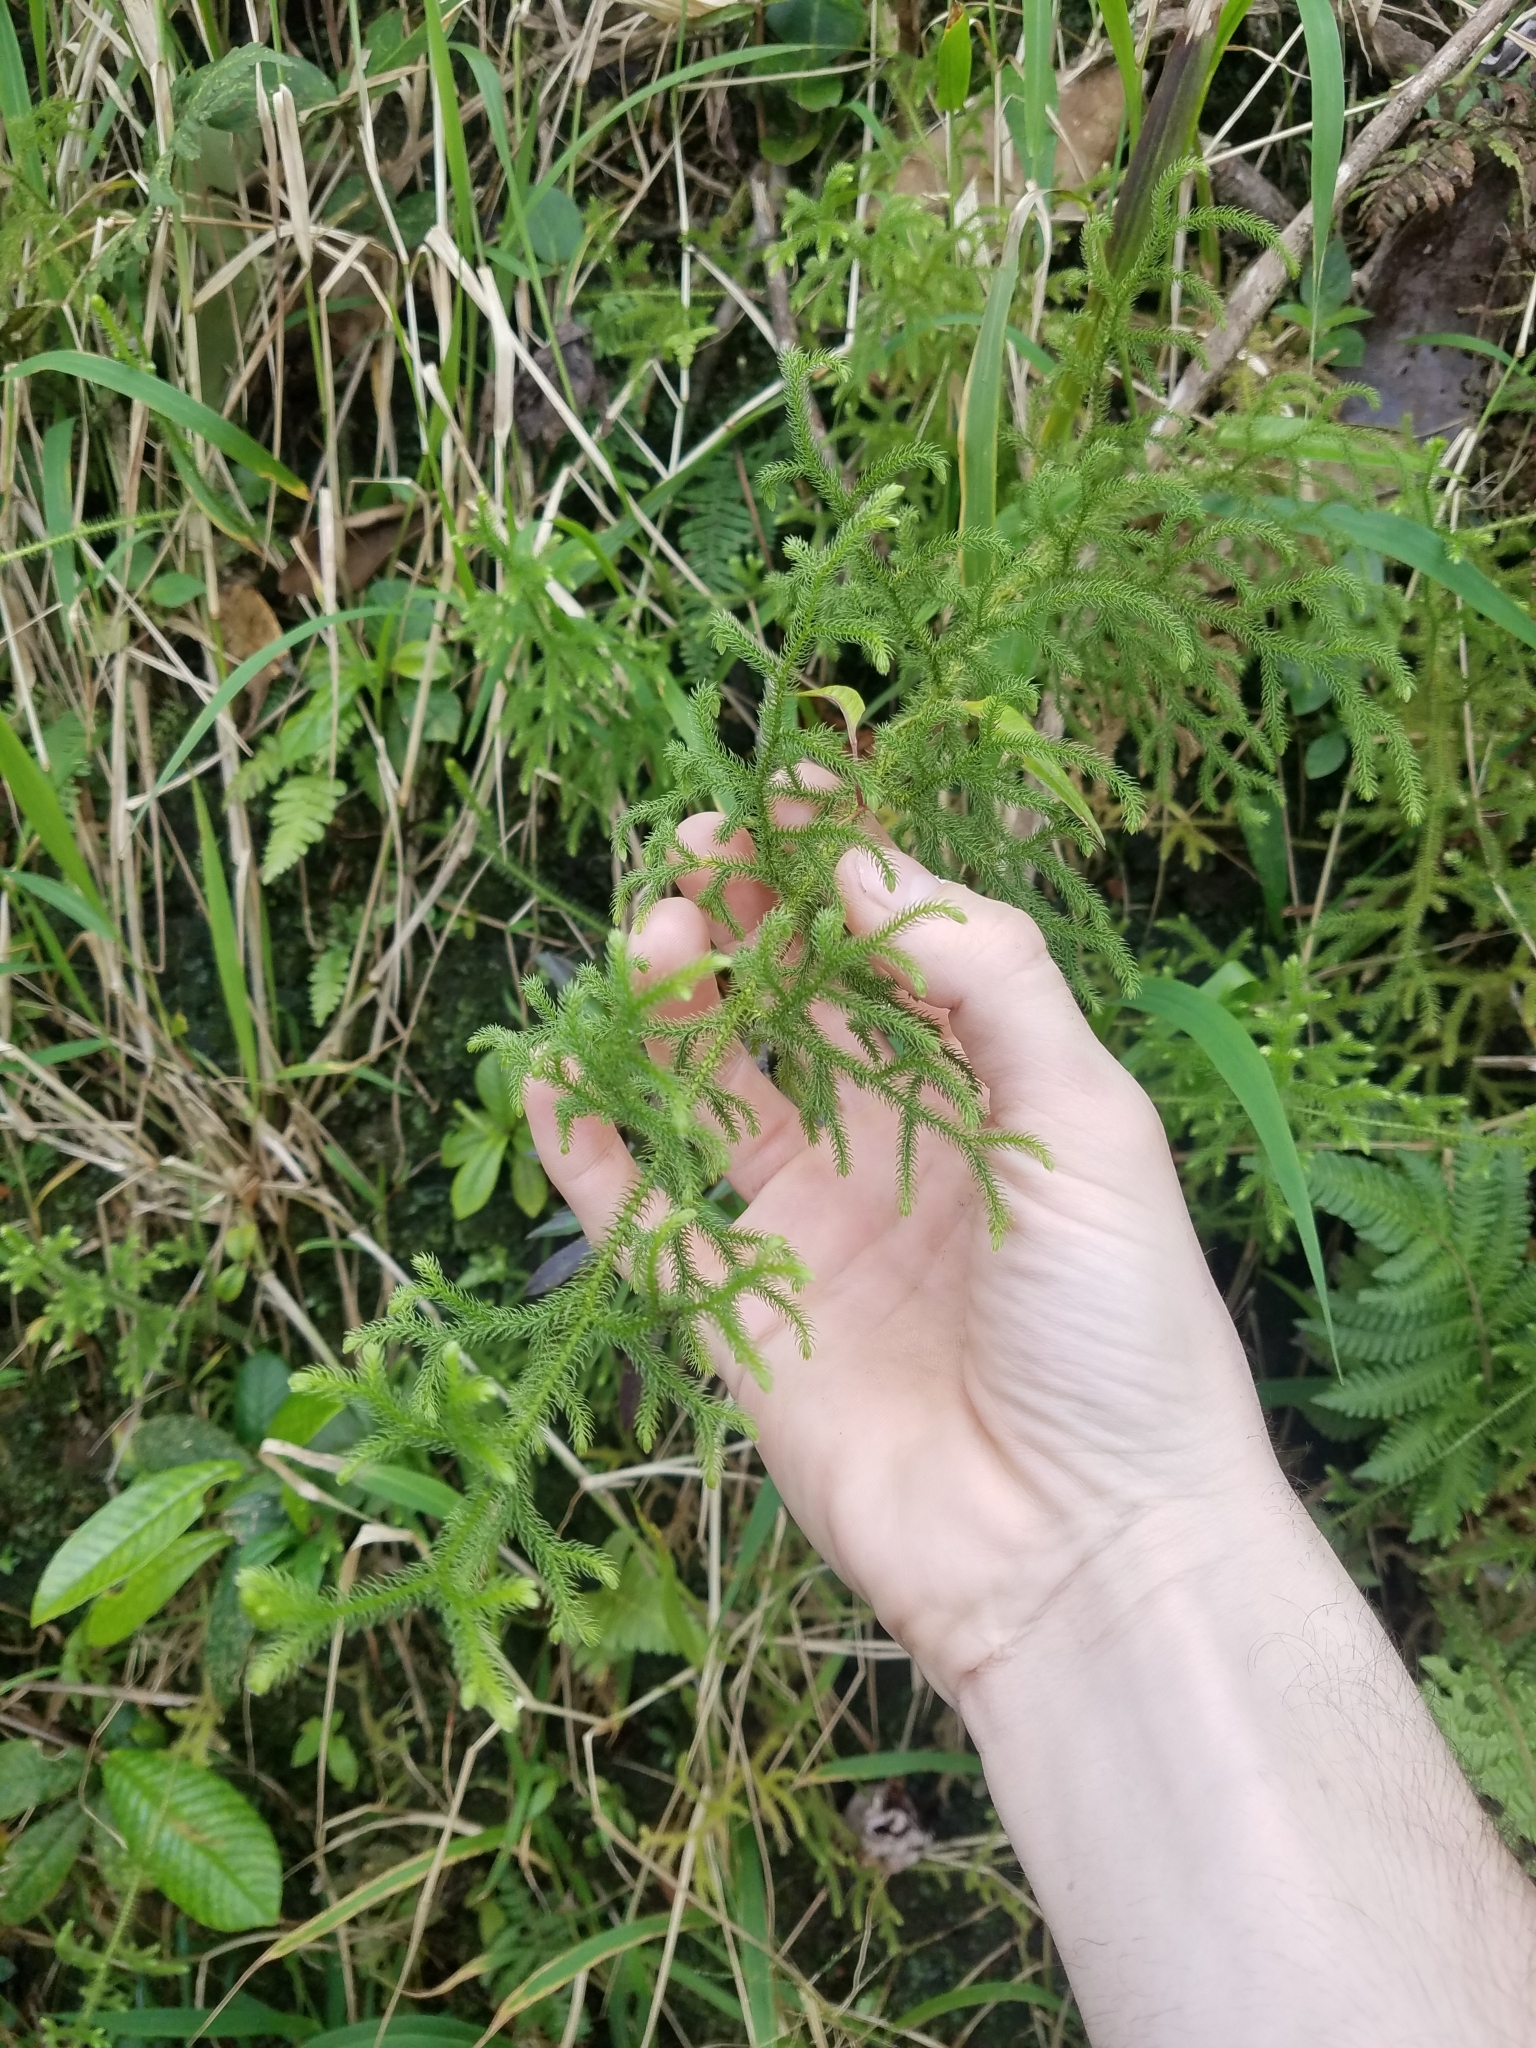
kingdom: Plantae
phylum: Tracheophyta
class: Lycopodiopsida
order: Lycopodiales
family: Lycopodiaceae
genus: Palhinhaea
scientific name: Palhinhaea cernua
